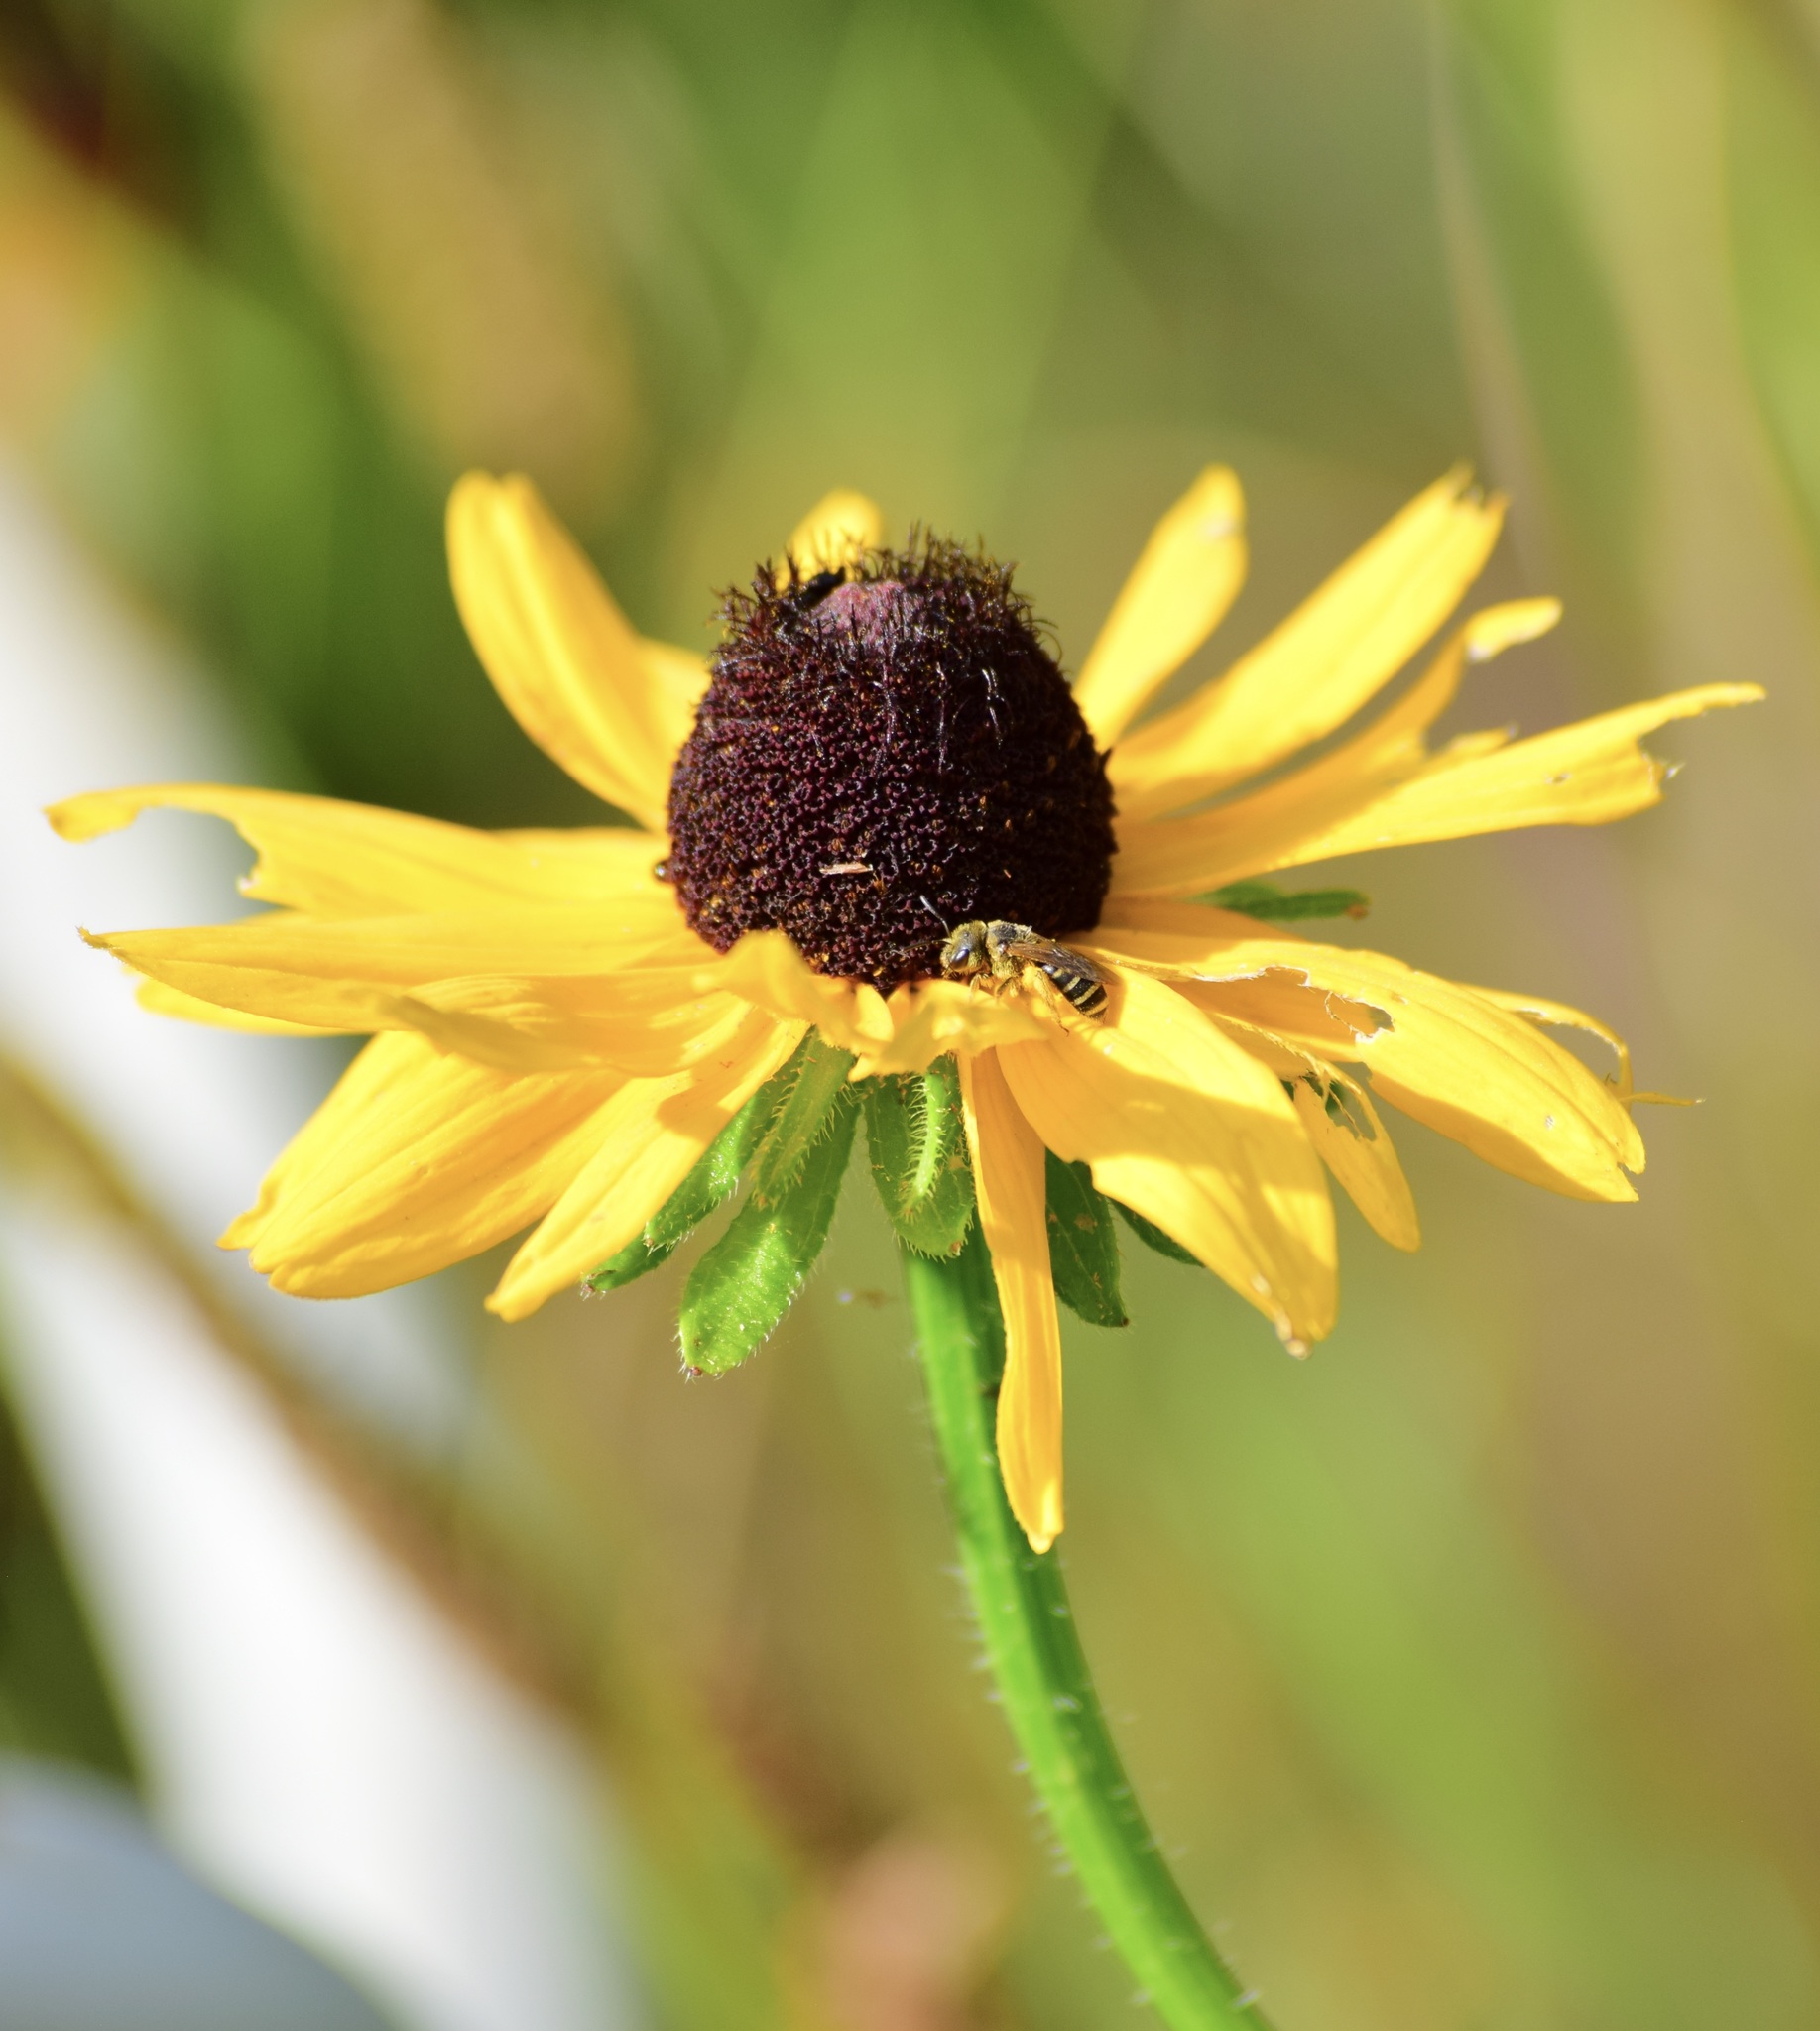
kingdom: Animalia
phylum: Arthropoda
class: Insecta
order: Hymenoptera
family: Halictidae
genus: Halictus
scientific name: Halictus ligatus
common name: Ligated furrow bee
